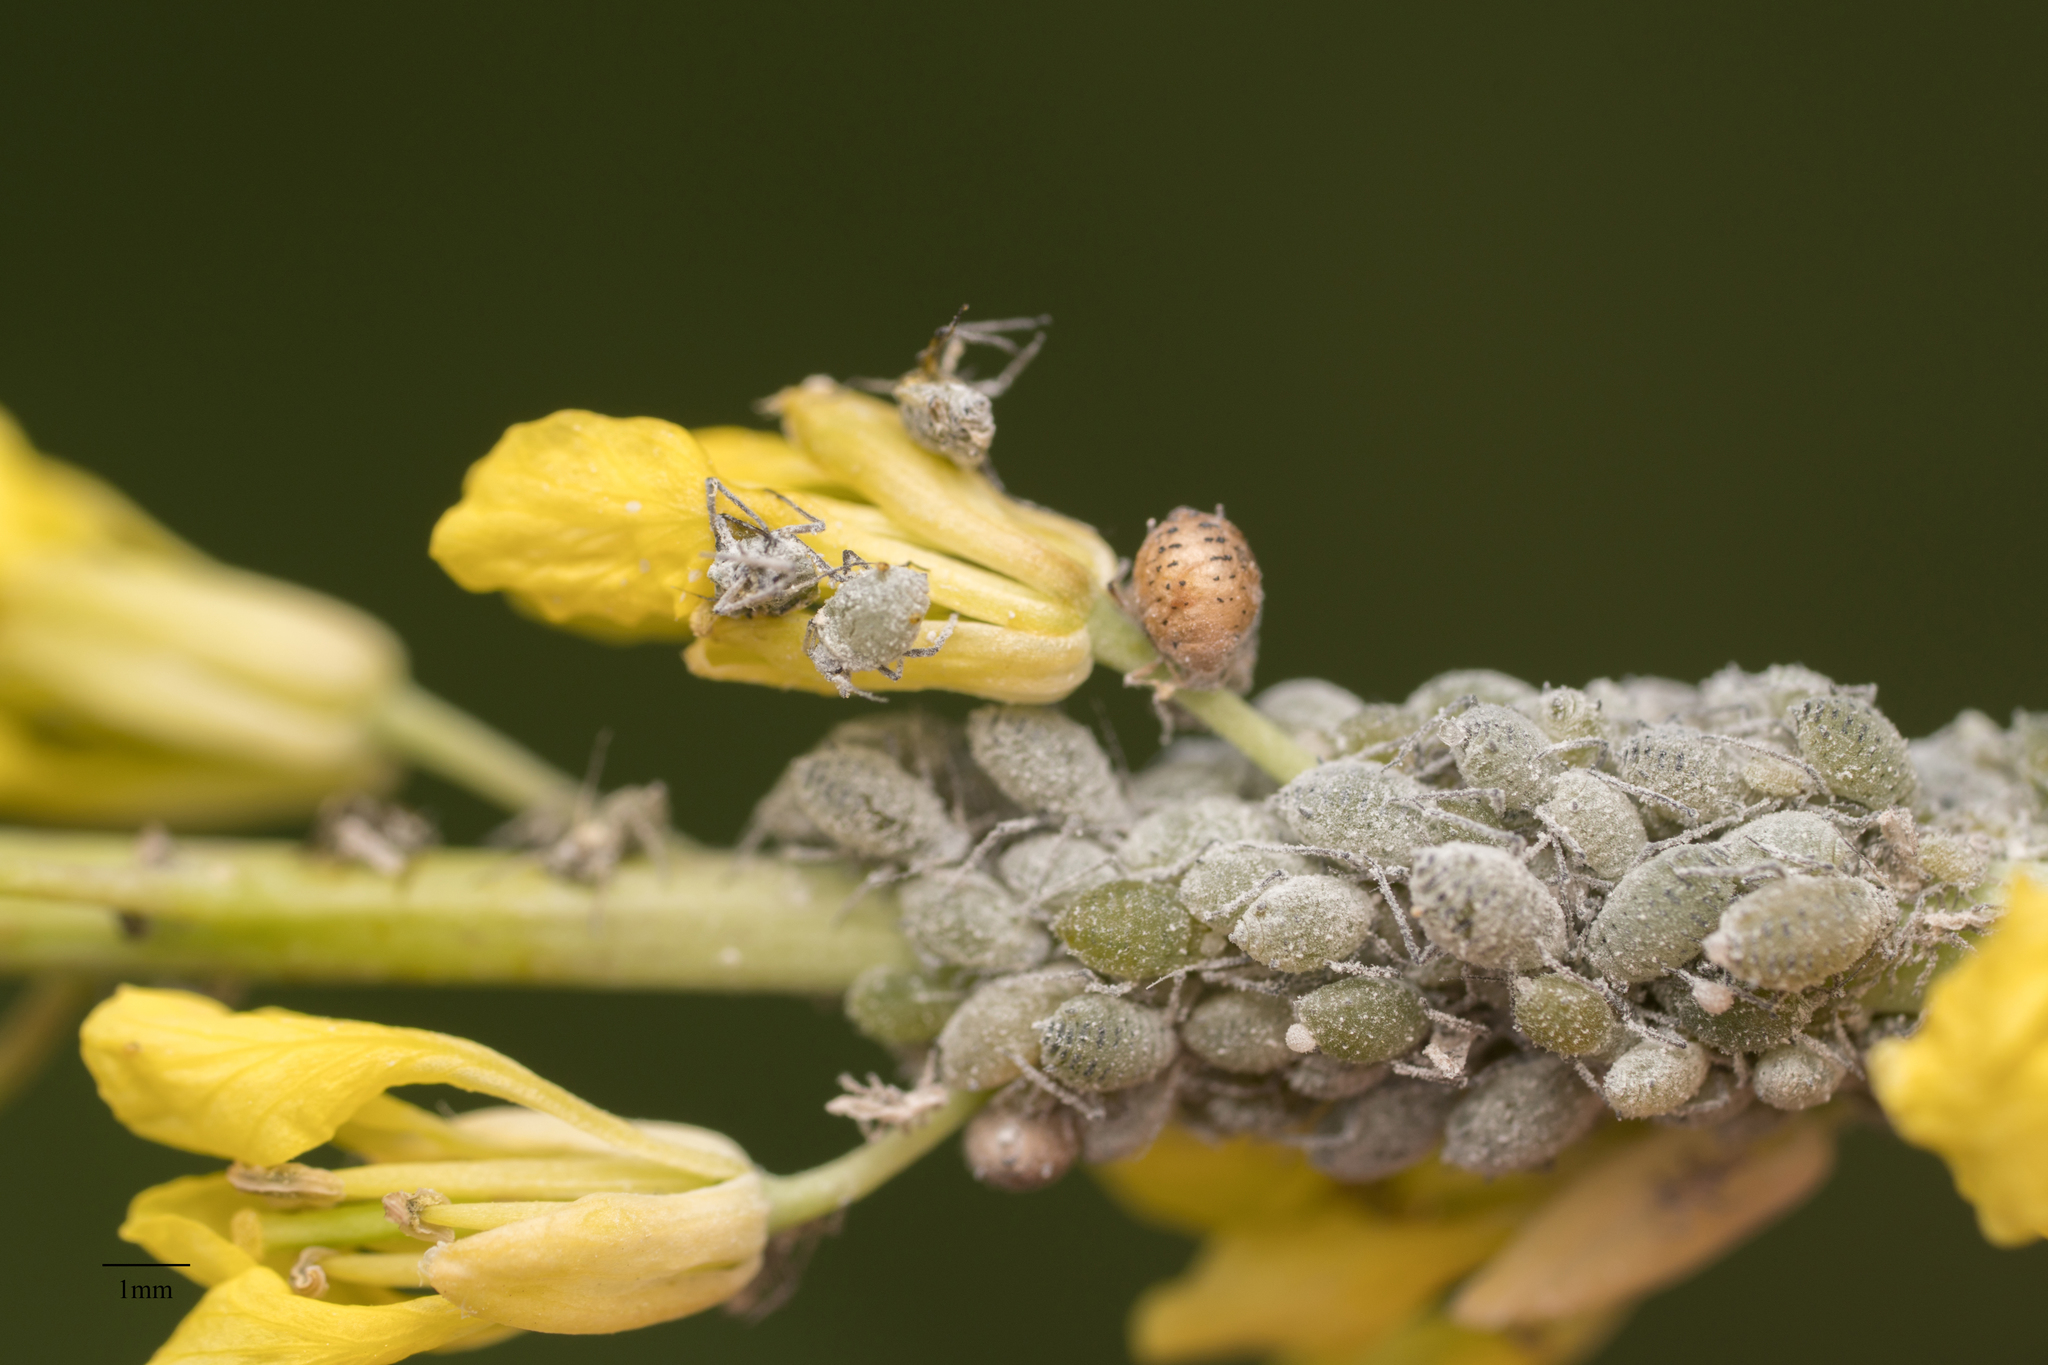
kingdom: Animalia
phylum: Arthropoda
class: Insecta
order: Hemiptera
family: Aphididae
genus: Brevicoryne
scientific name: Brevicoryne brassicae
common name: Cabbage aphid
